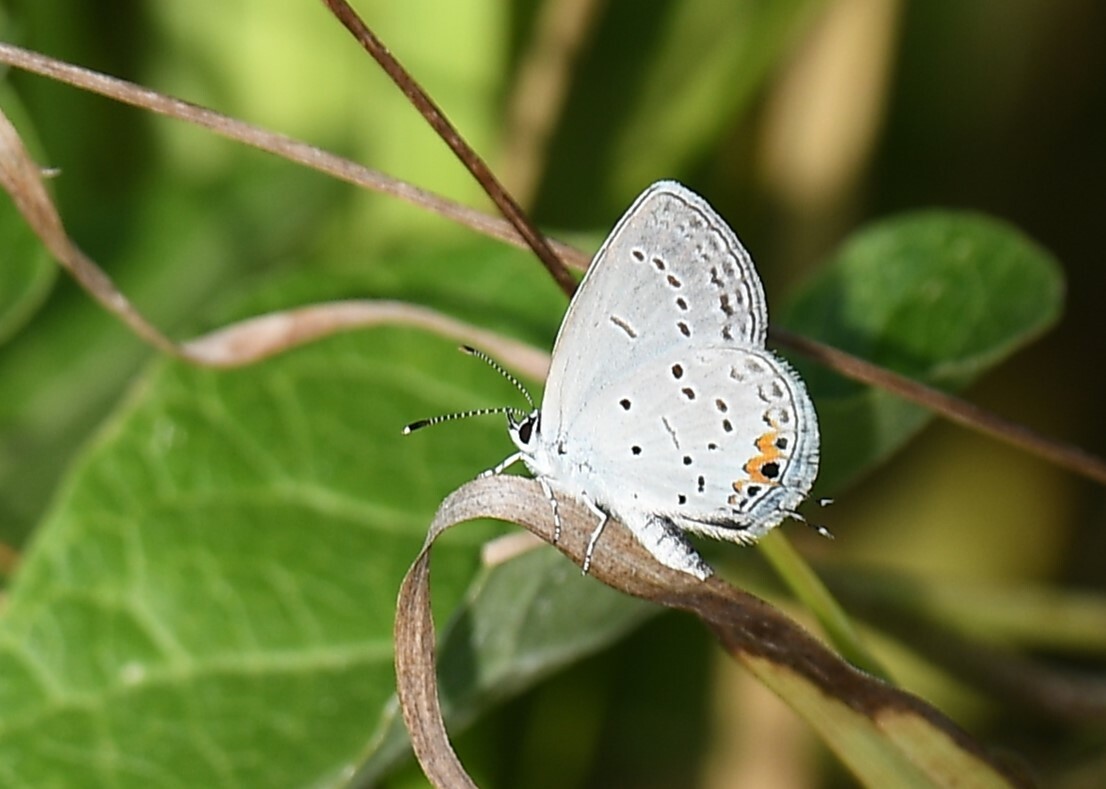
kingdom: Animalia
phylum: Arthropoda
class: Insecta
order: Lepidoptera
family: Lycaenidae
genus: Elkalyce
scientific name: Elkalyce comyntas
